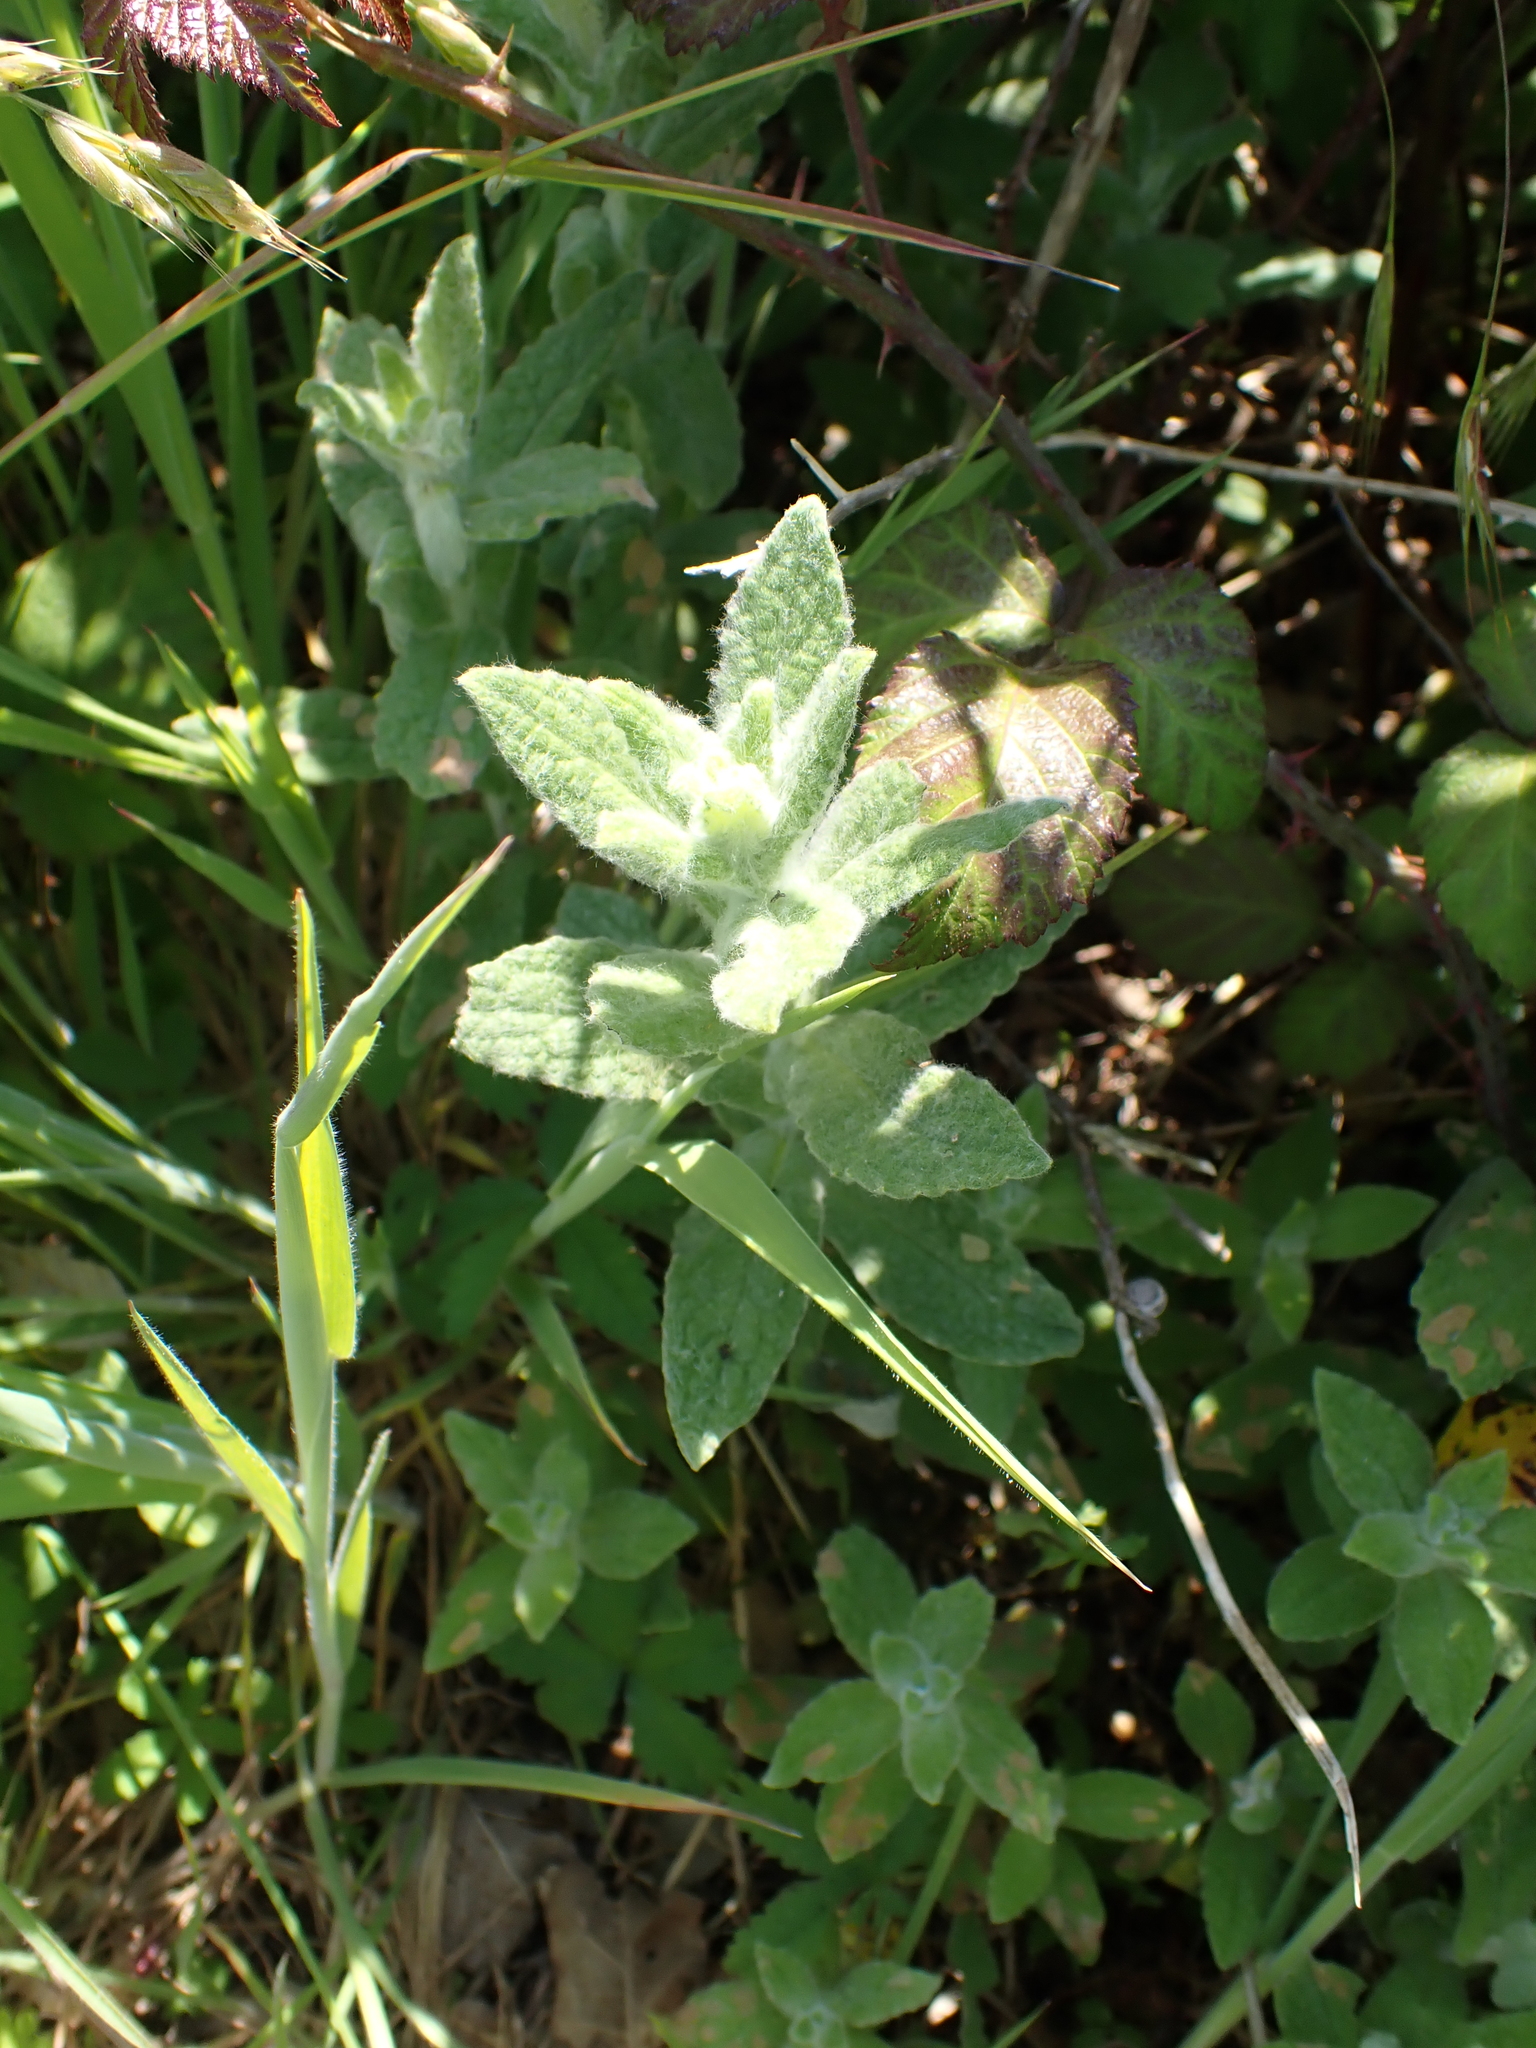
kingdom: Plantae
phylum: Tracheophyta
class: Magnoliopsida
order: Asterales
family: Asteraceae
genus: Pulicaria
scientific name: Pulicaria dysenterica
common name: Common fleabane
